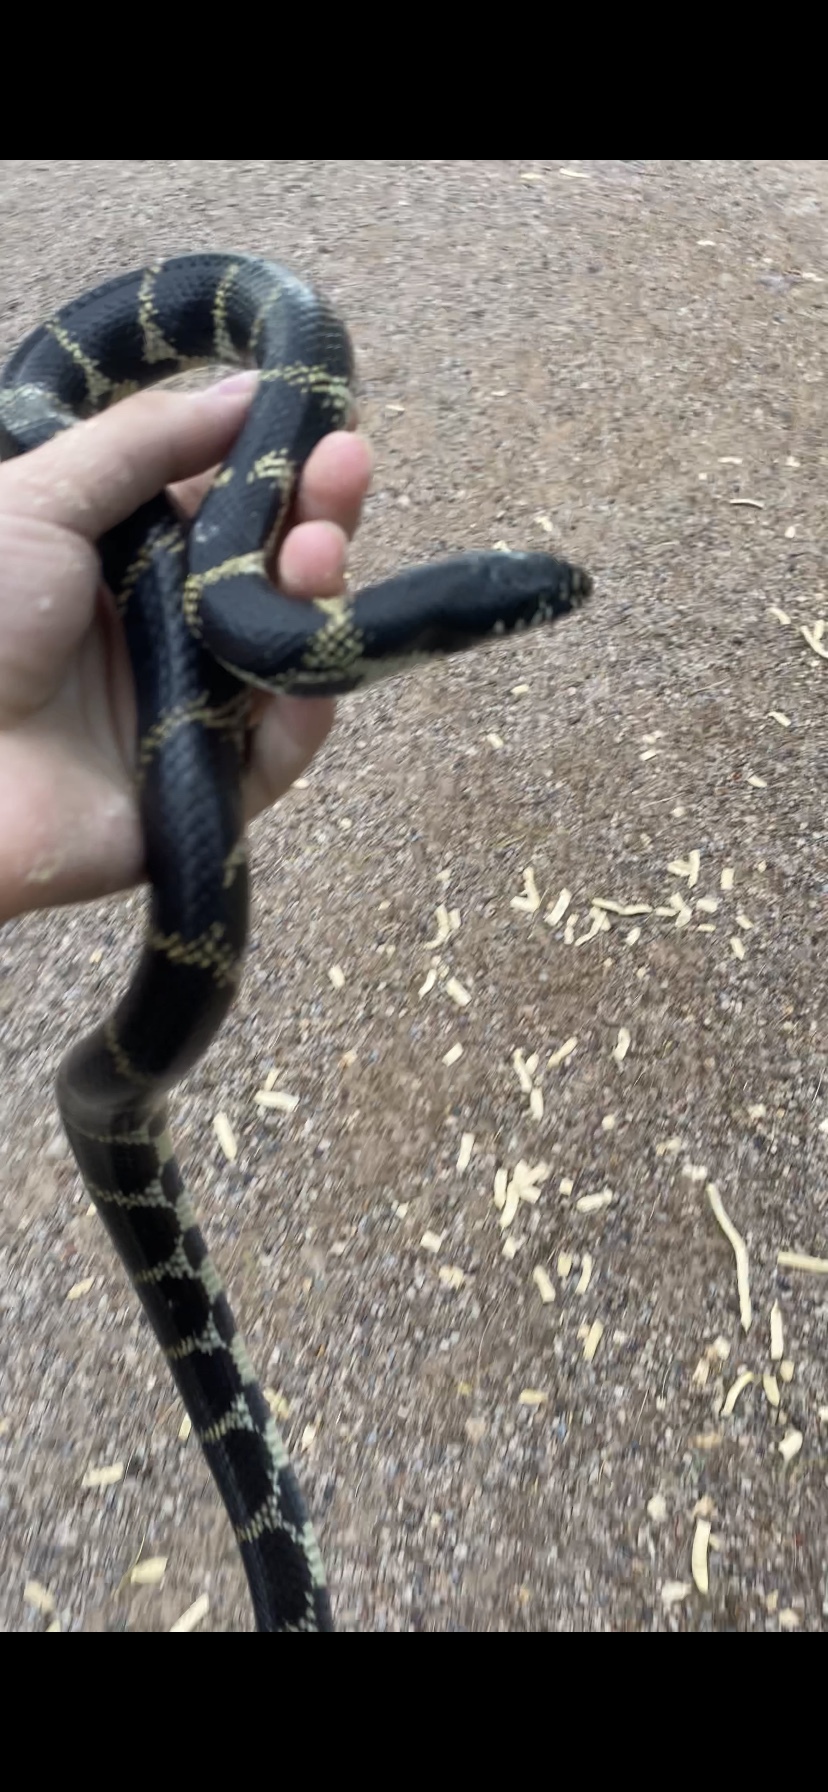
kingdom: Animalia
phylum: Chordata
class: Squamata
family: Colubridae
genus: Lampropeltis
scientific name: Lampropeltis californiae
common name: California kingsnake
